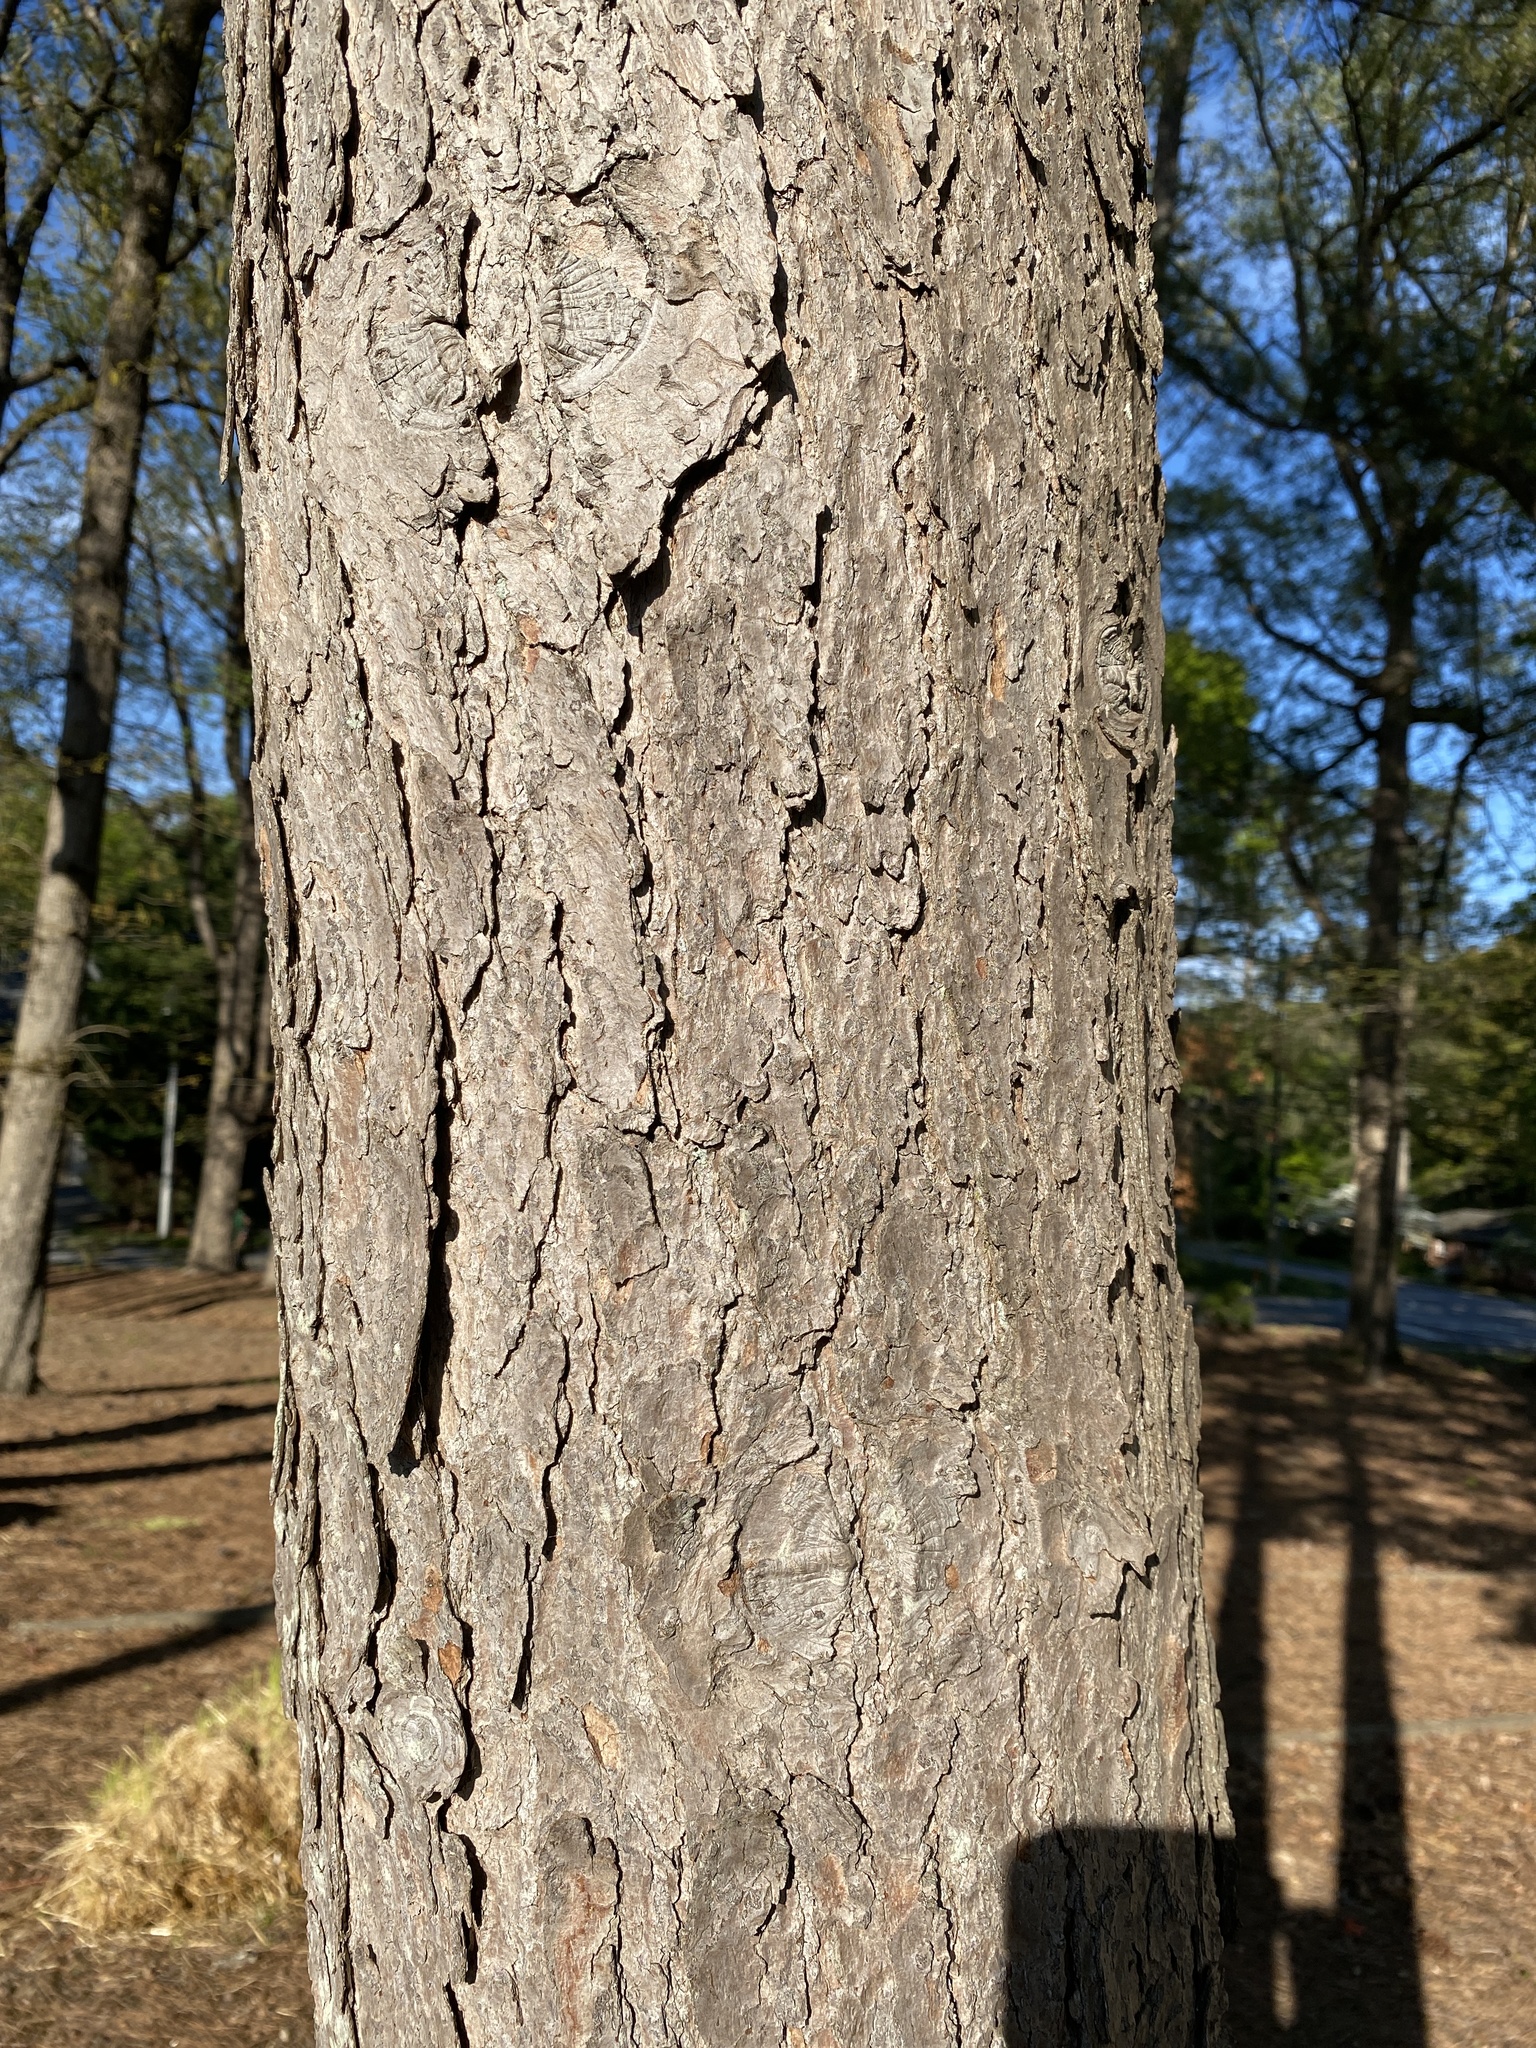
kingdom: Plantae
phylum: Tracheophyta
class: Pinopsida
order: Pinales
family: Pinaceae
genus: Tsuga
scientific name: Tsuga canadensis
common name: Eastern hemlock
